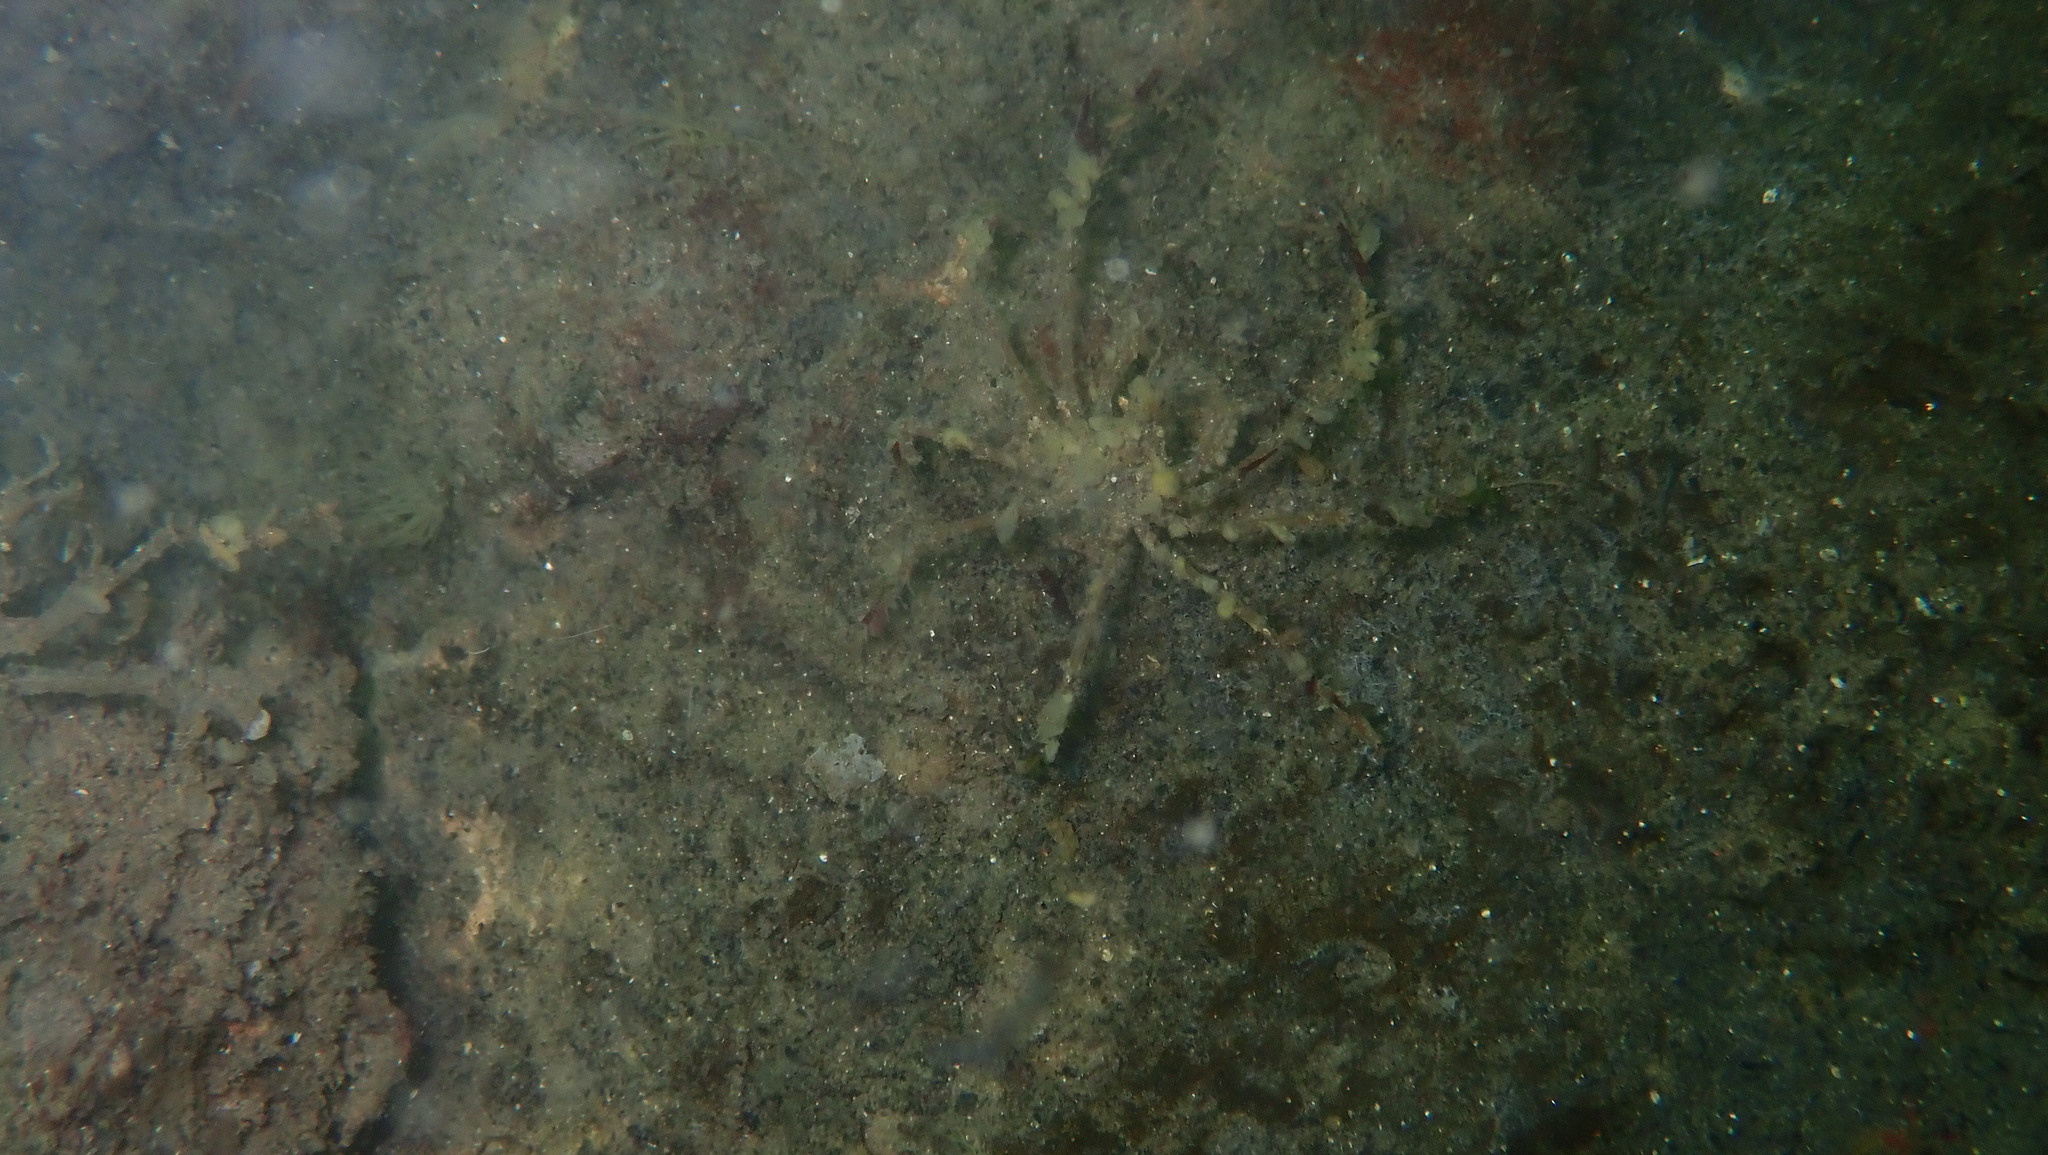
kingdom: Animalia
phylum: Arthropoda
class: Malacostraca
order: Decapoda
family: Inachidae
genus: Macropodia
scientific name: Macropodia rostrata
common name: Long-legged spider crab
